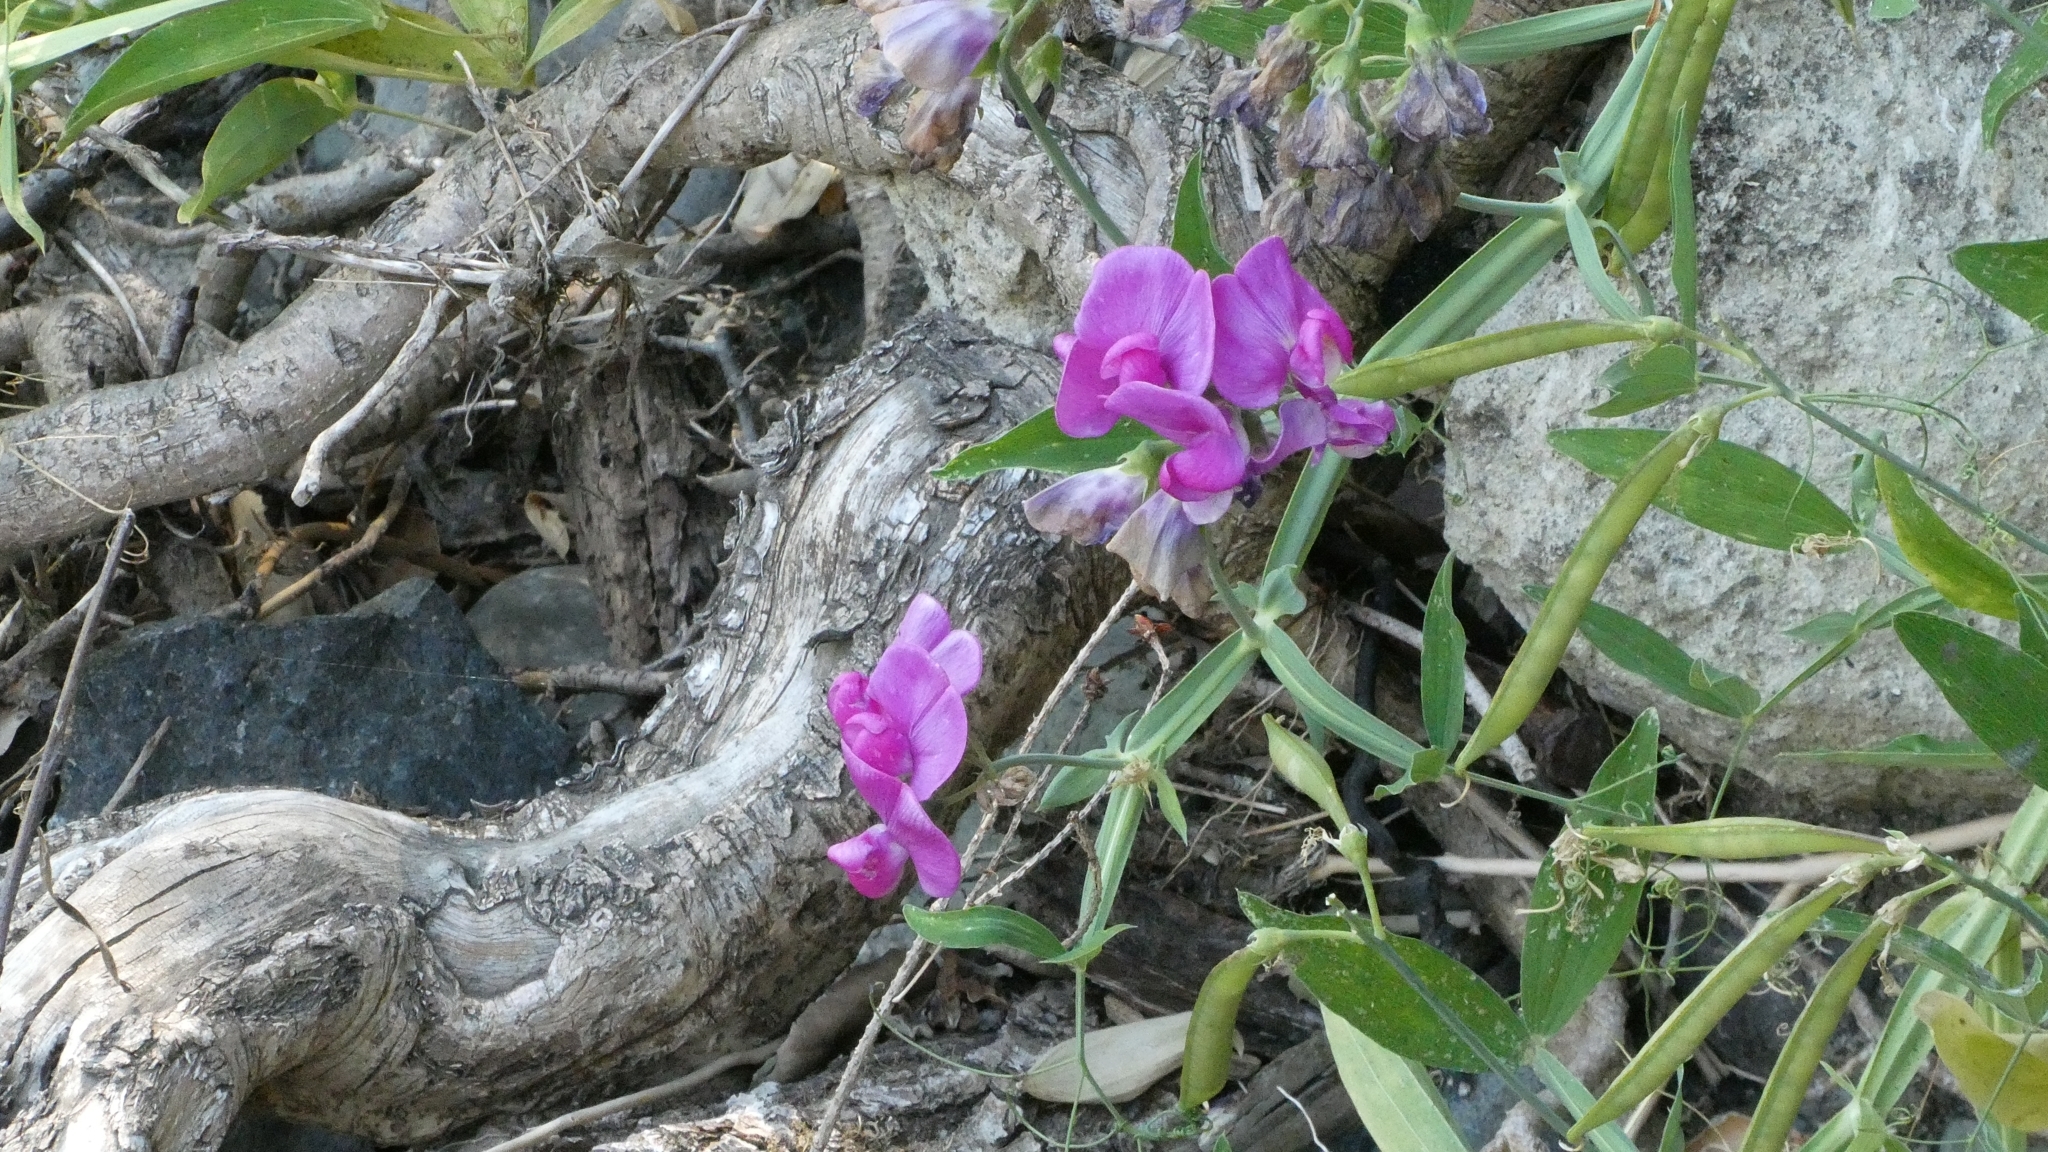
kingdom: Plantae
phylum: Tracheophyta
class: Magnoliopsida
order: Fabales
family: Fabaceae
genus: Lathyrus
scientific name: Lathyrus latifolius
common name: Perennial pea
